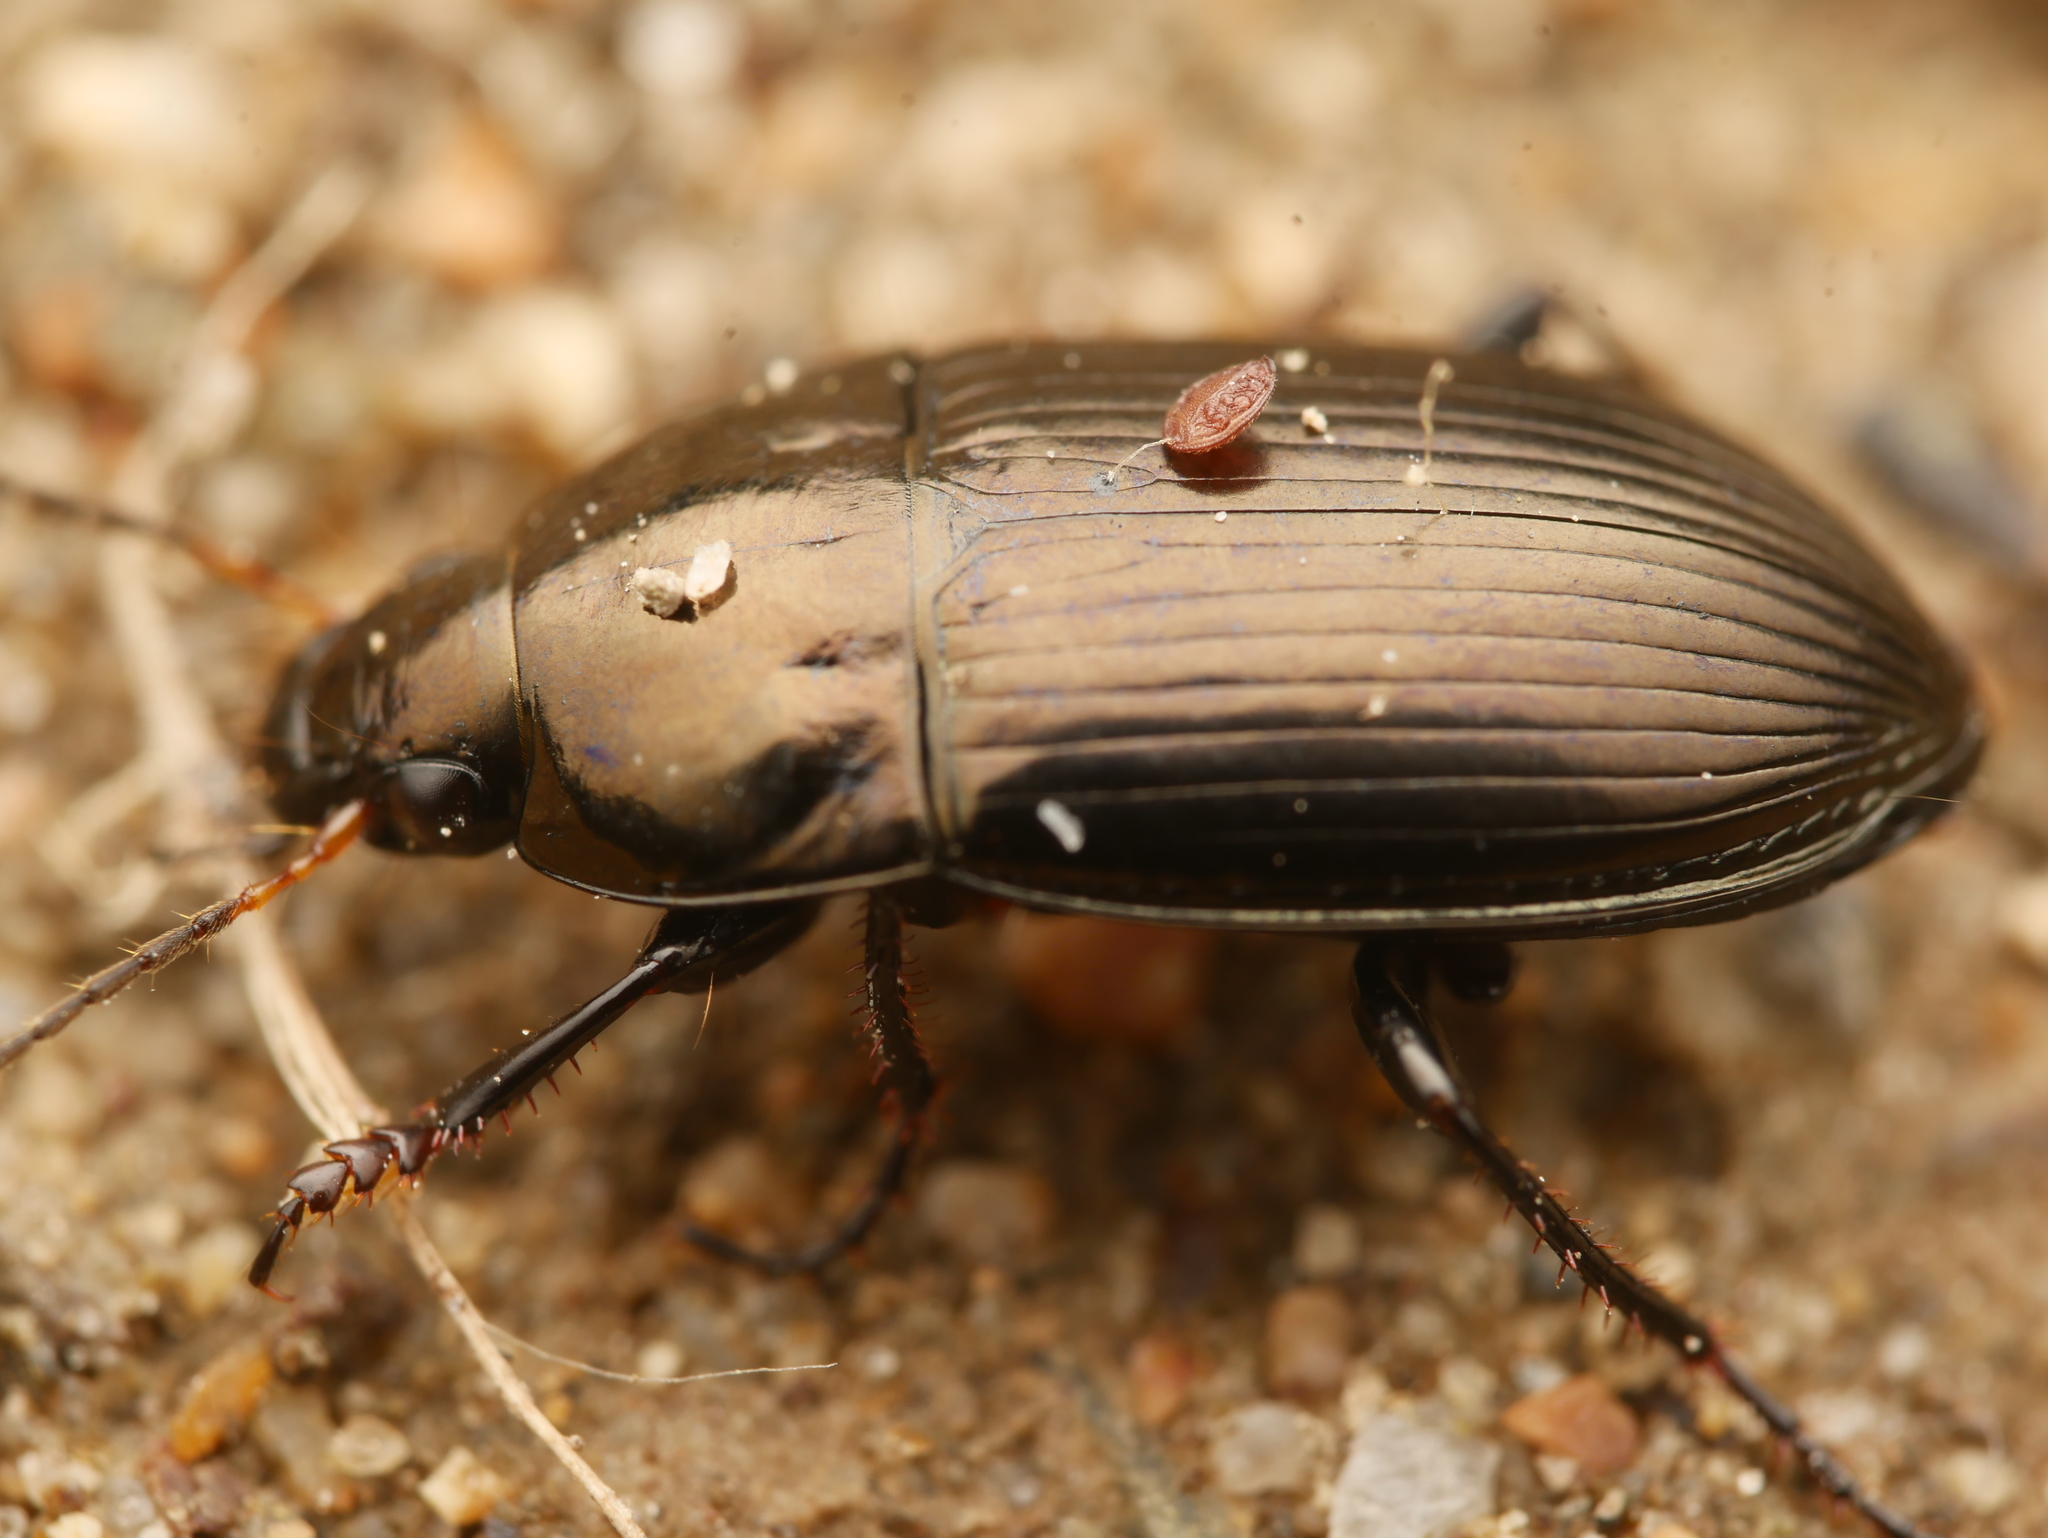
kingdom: Animalia
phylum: Arthropoda
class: Insecta
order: Coleoptera
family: Carabidae
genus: Amara
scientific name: Amara aenea
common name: Common sun beetle
